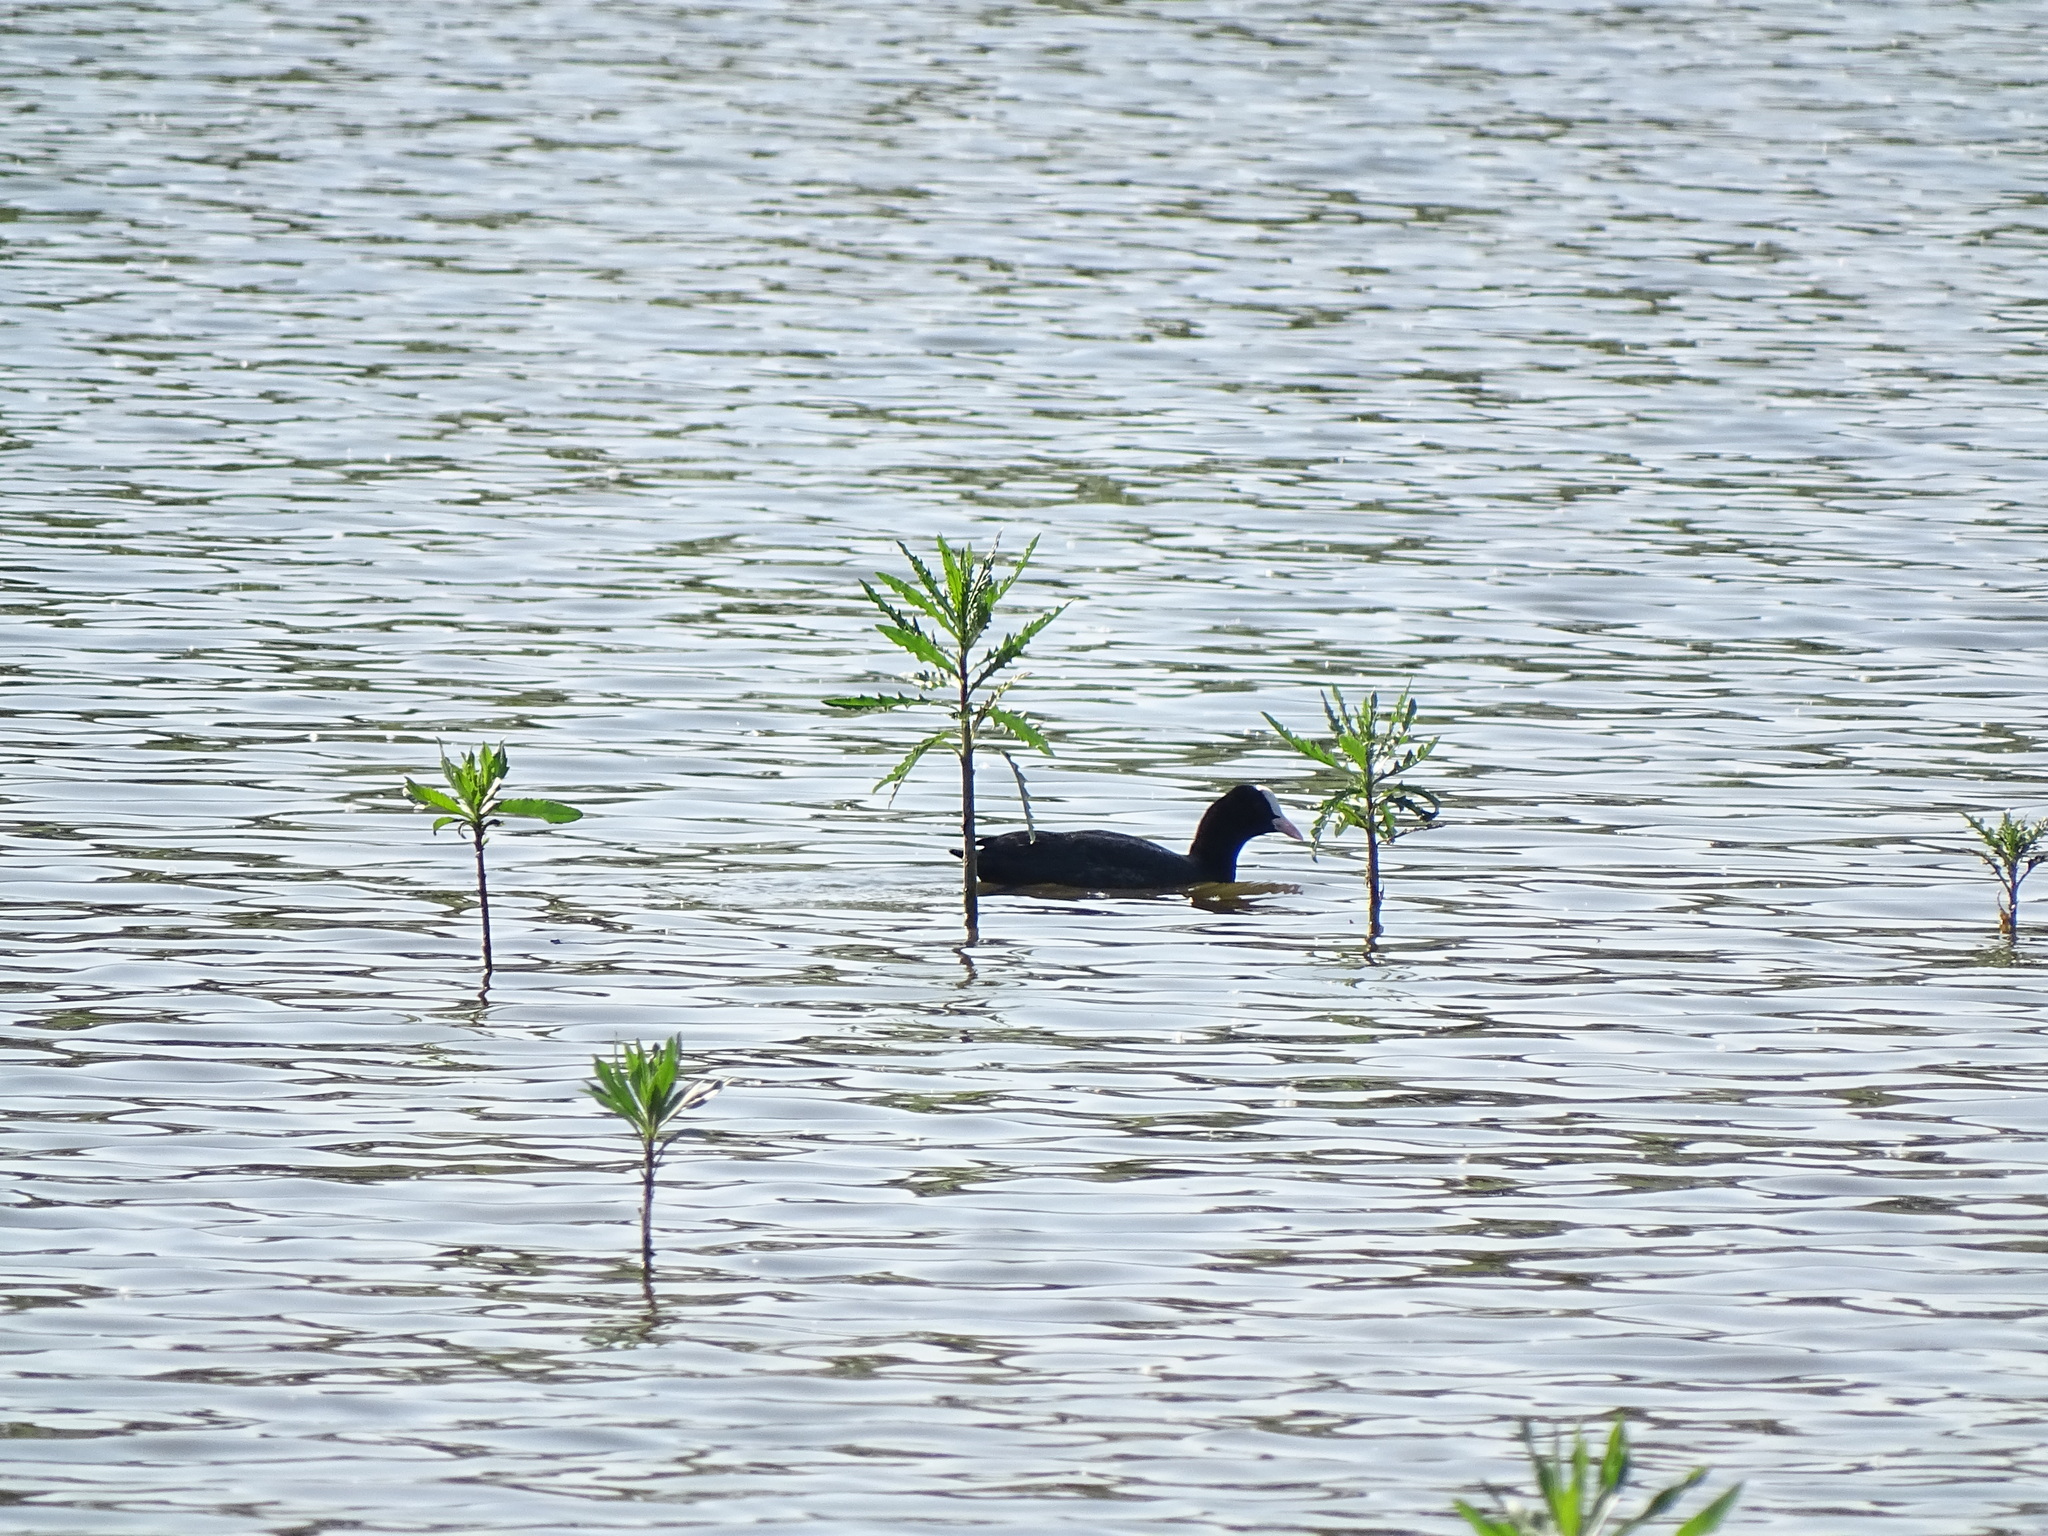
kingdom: Animalia
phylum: Chordata
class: Aves
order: Gruiformes
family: Rallidae
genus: Fulica
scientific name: Fulica atra
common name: Eurasian coot
